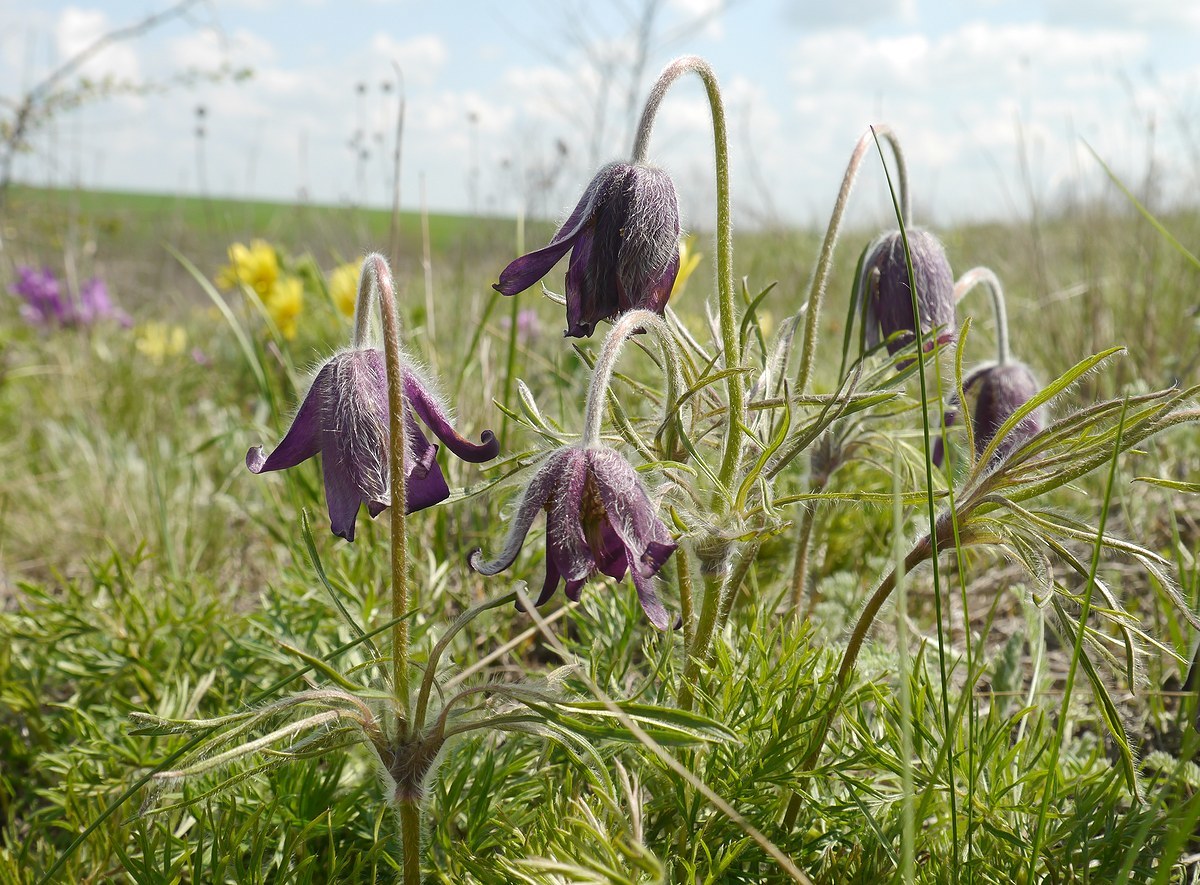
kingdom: Plantae
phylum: Tracheophyta
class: Magnoliopsida
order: Ranunculales
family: Ranunculaceae
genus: Pulsatilla
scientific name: Pulsatilla pratensis
